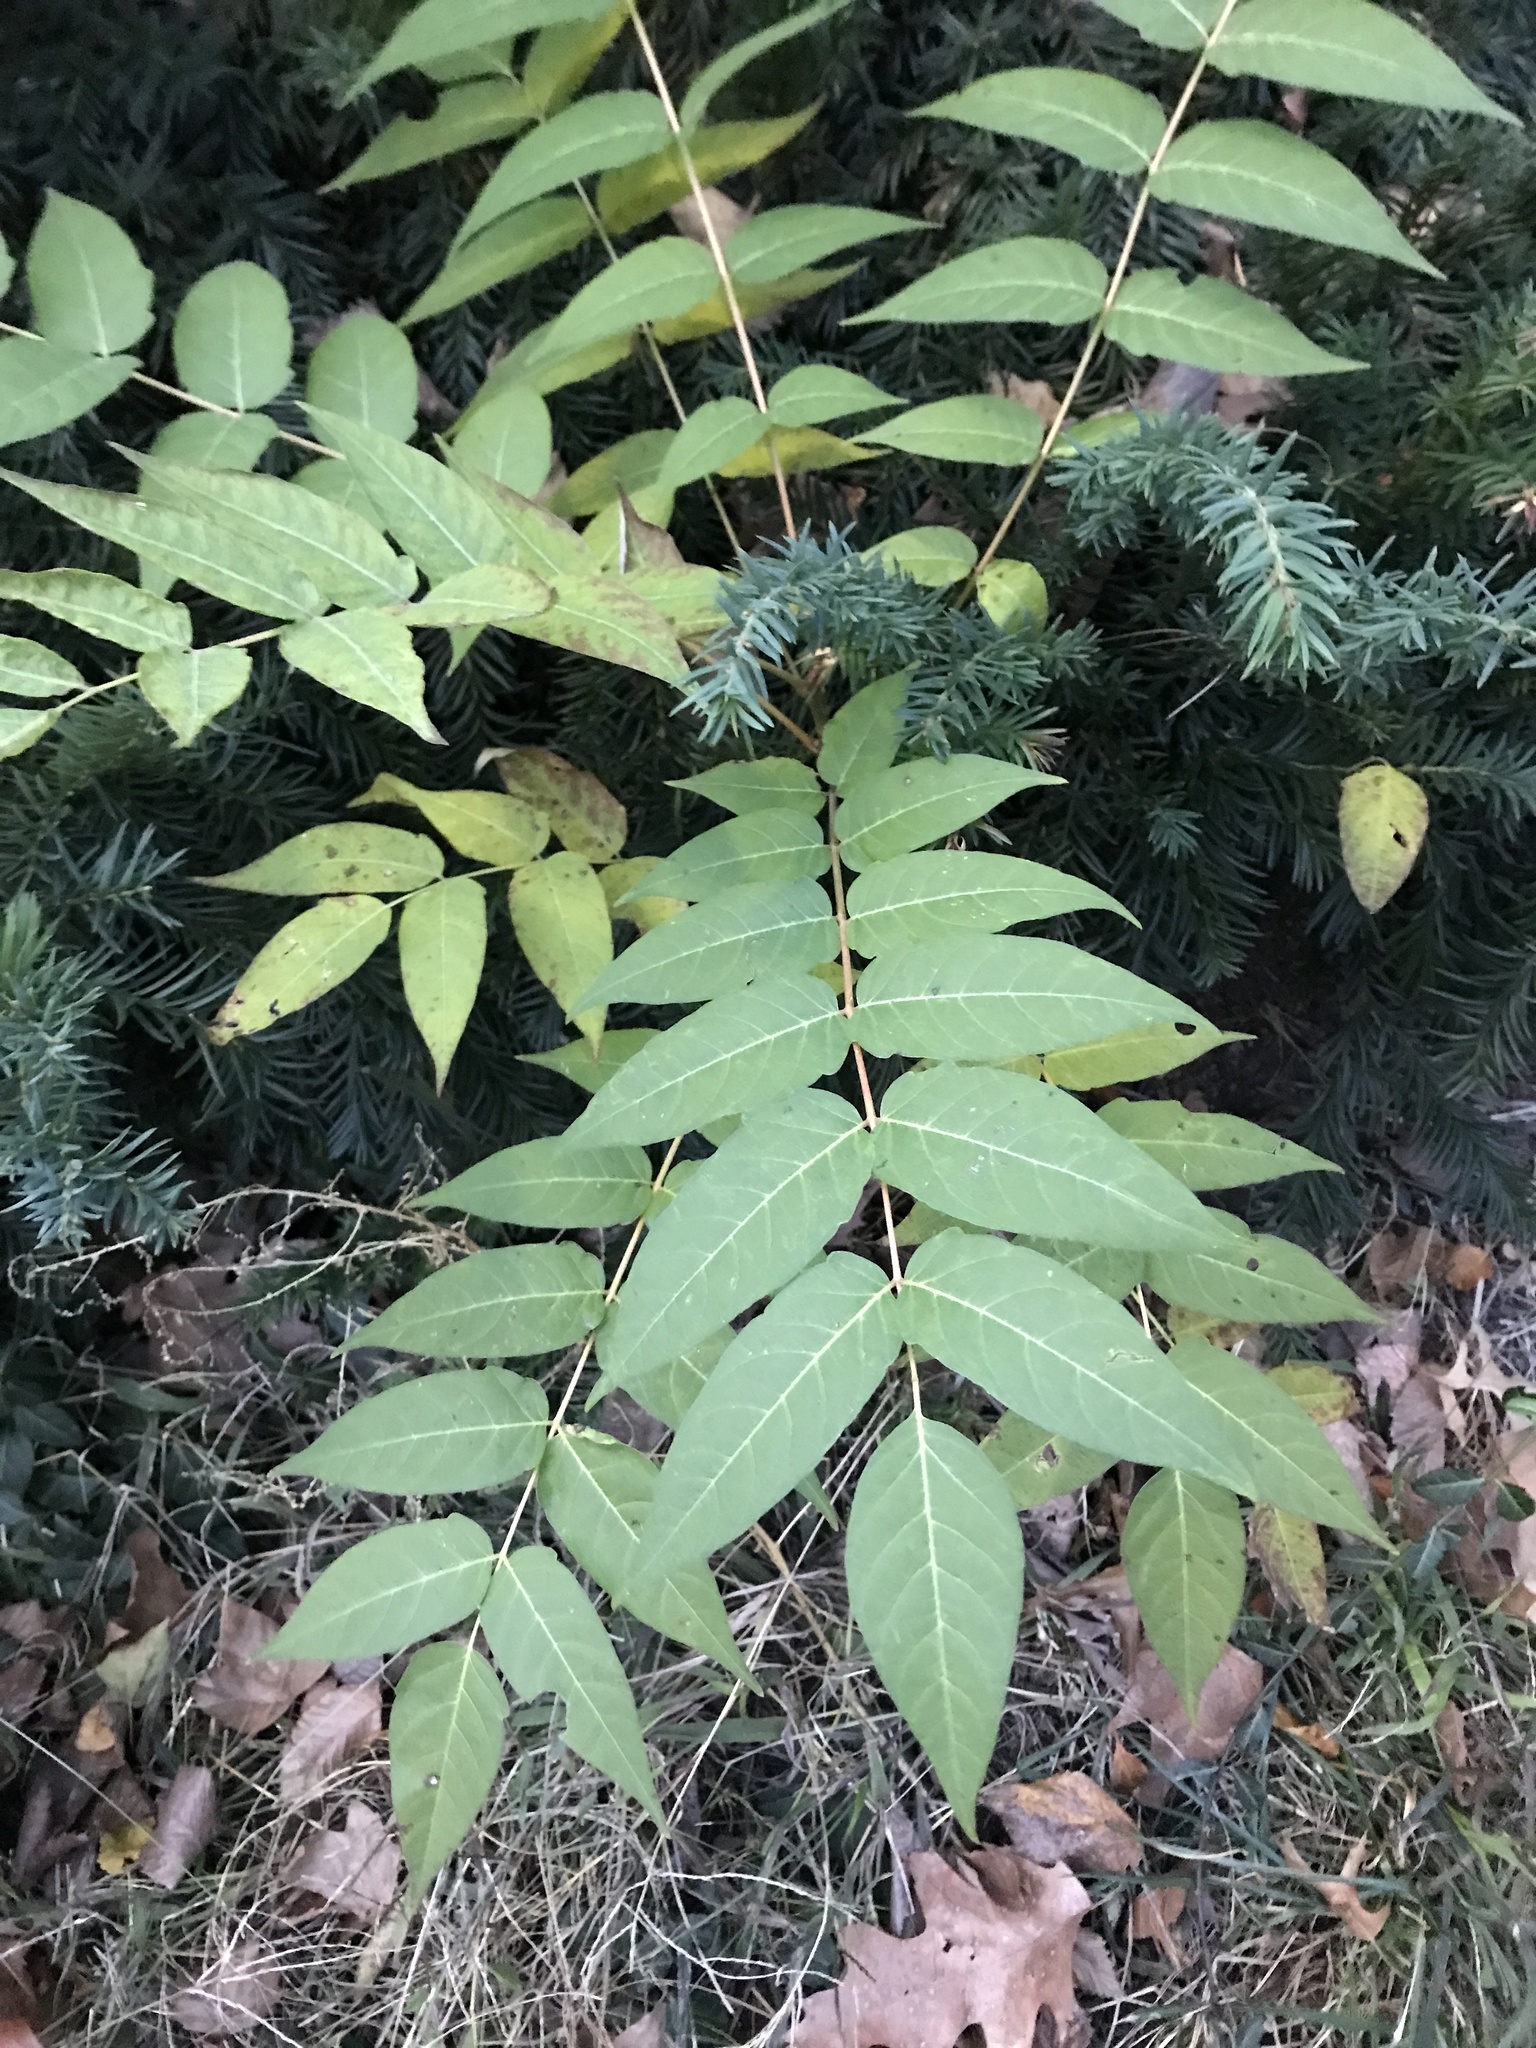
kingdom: Plantae
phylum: Tracheophyta
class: Magnoliopsida
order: Sapindales
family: Simaroubaceae
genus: Ailanthus
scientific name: Ailanthus altissima
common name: Tree-of-heaven
